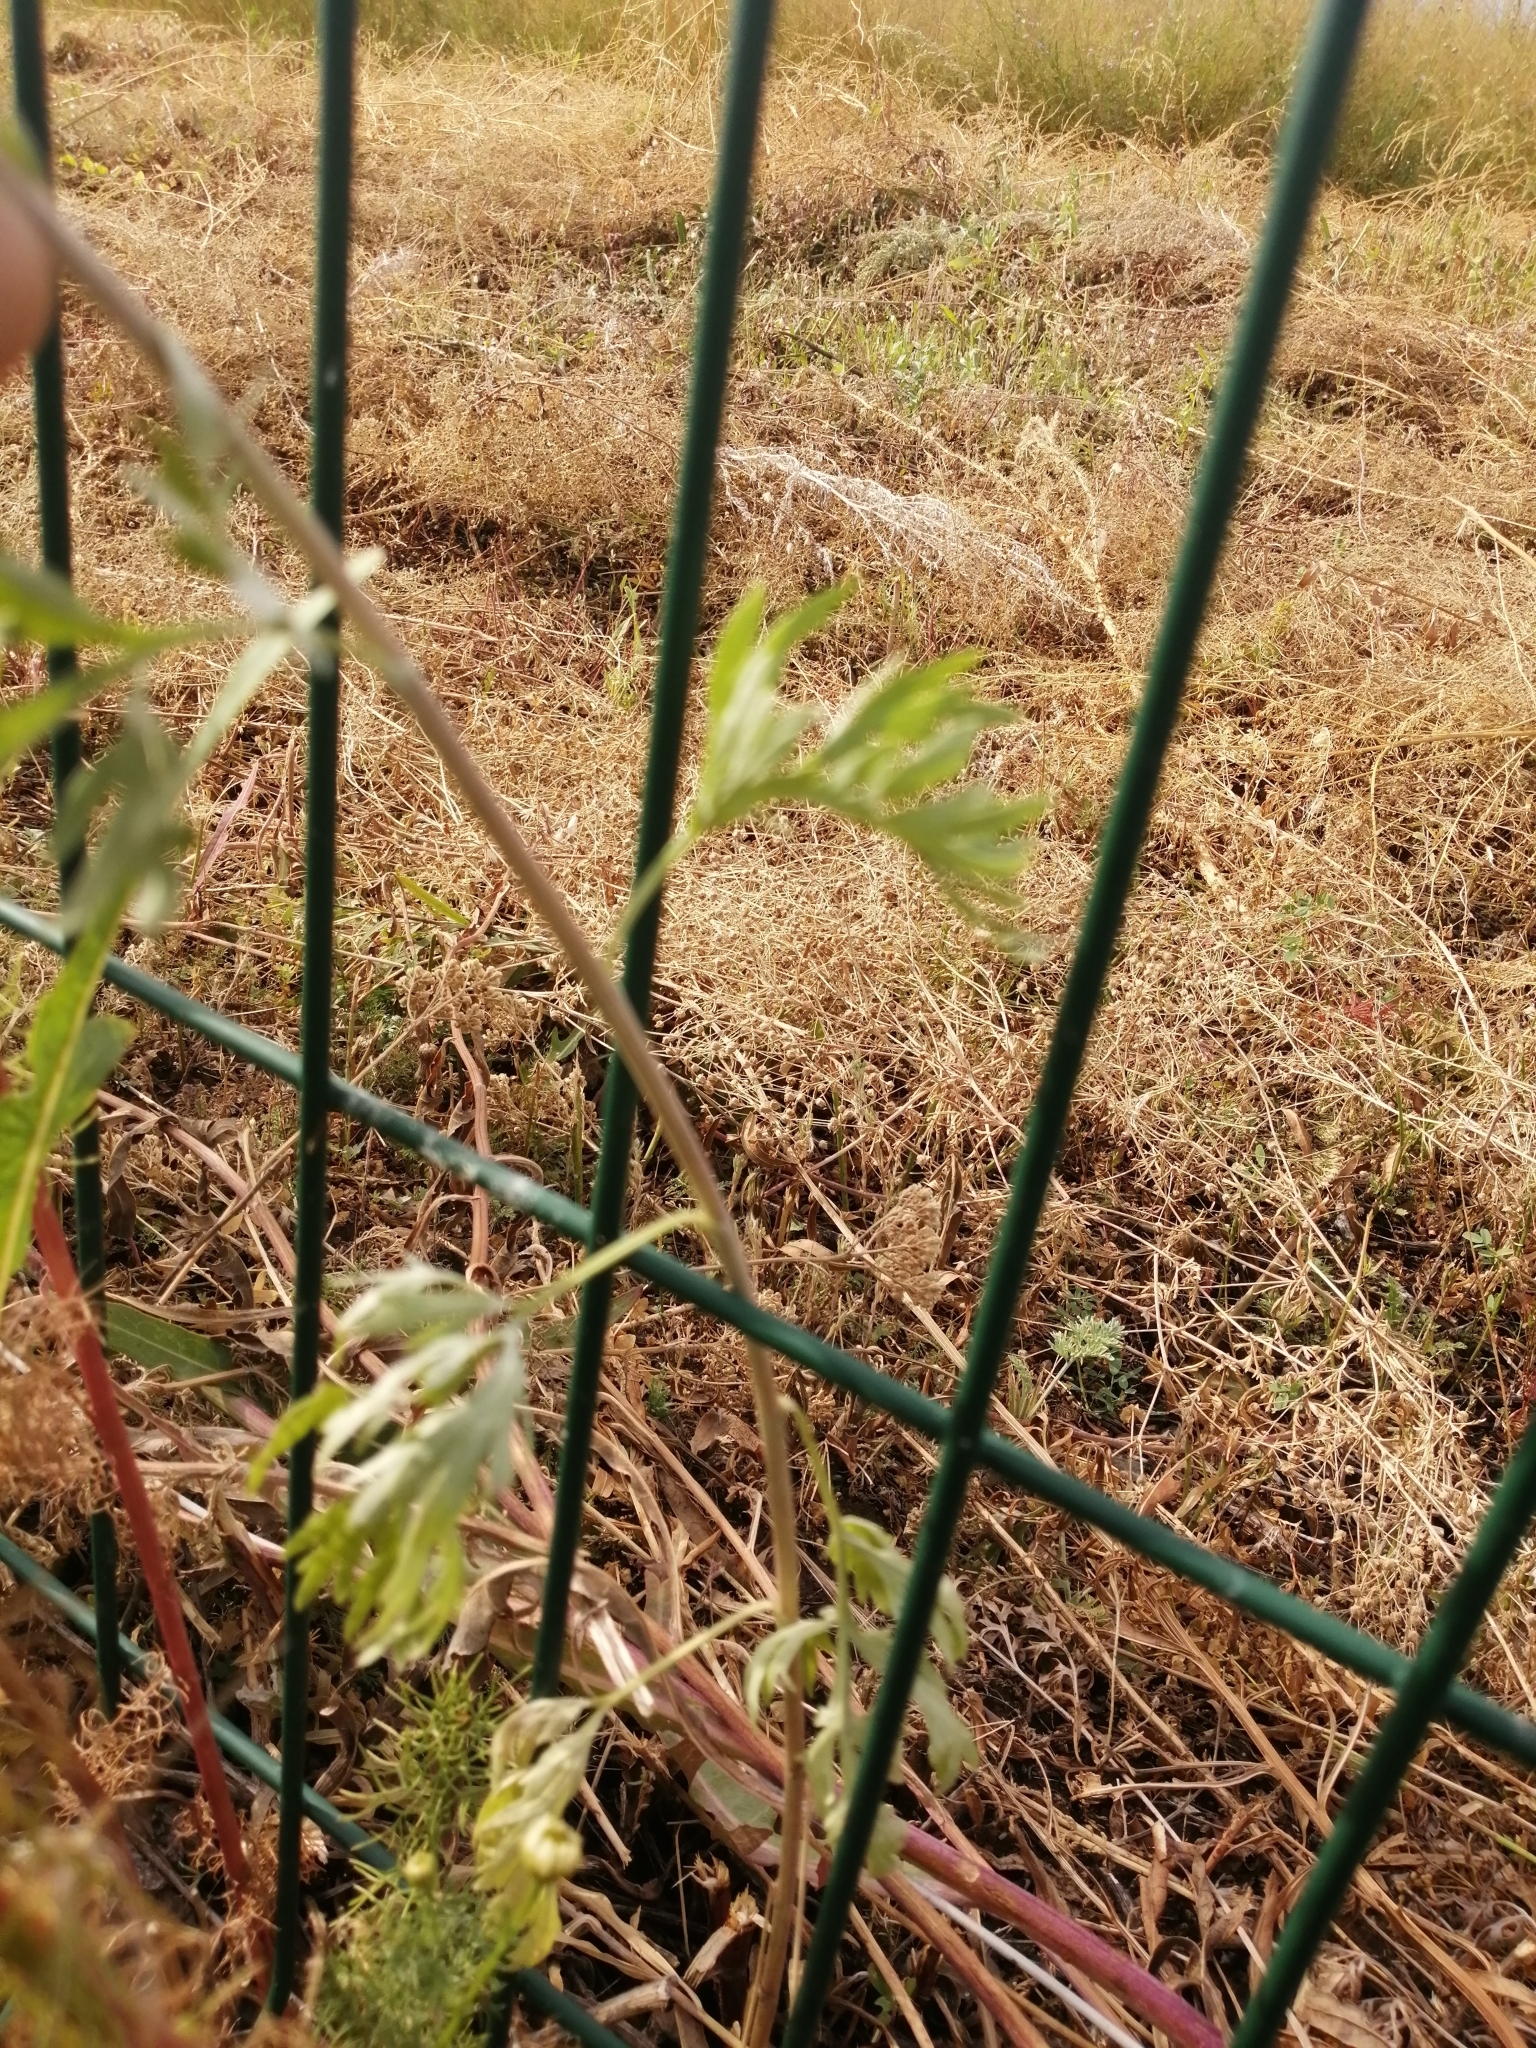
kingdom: Plantae
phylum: Tracheophyta
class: Magnoliopsida
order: Asterales
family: Asteraceae
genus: Artemisia
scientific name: Artemisia sieversiana
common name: Sieversian wormwood
